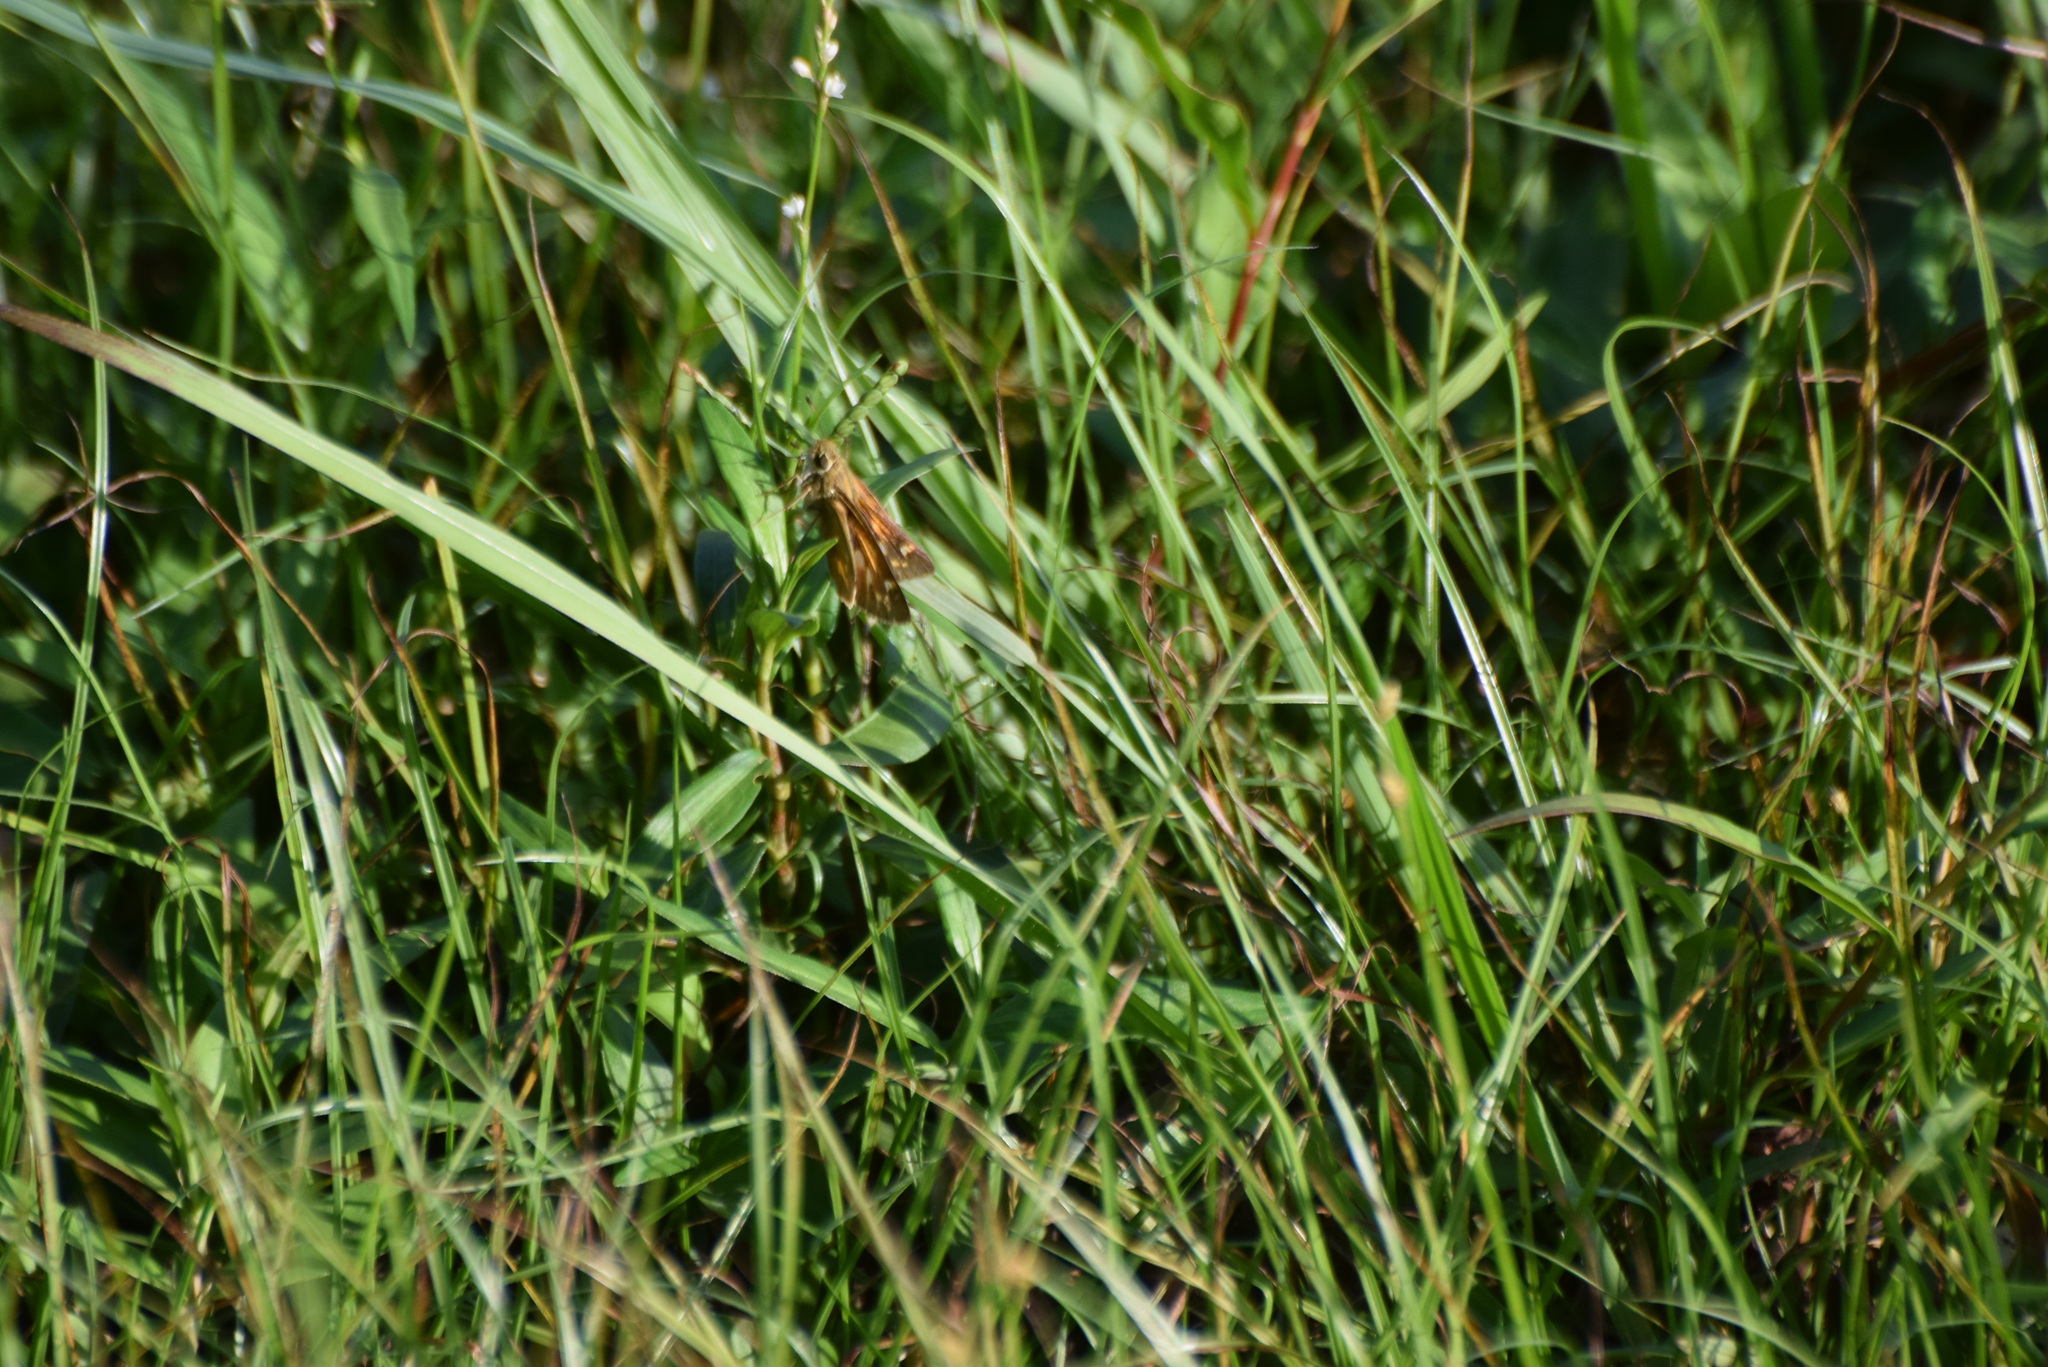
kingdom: Animalia
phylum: Arthropoda
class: Insecta
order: Lepidoptera
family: Hesperiidae
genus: Atalopedes
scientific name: Atalopedes
